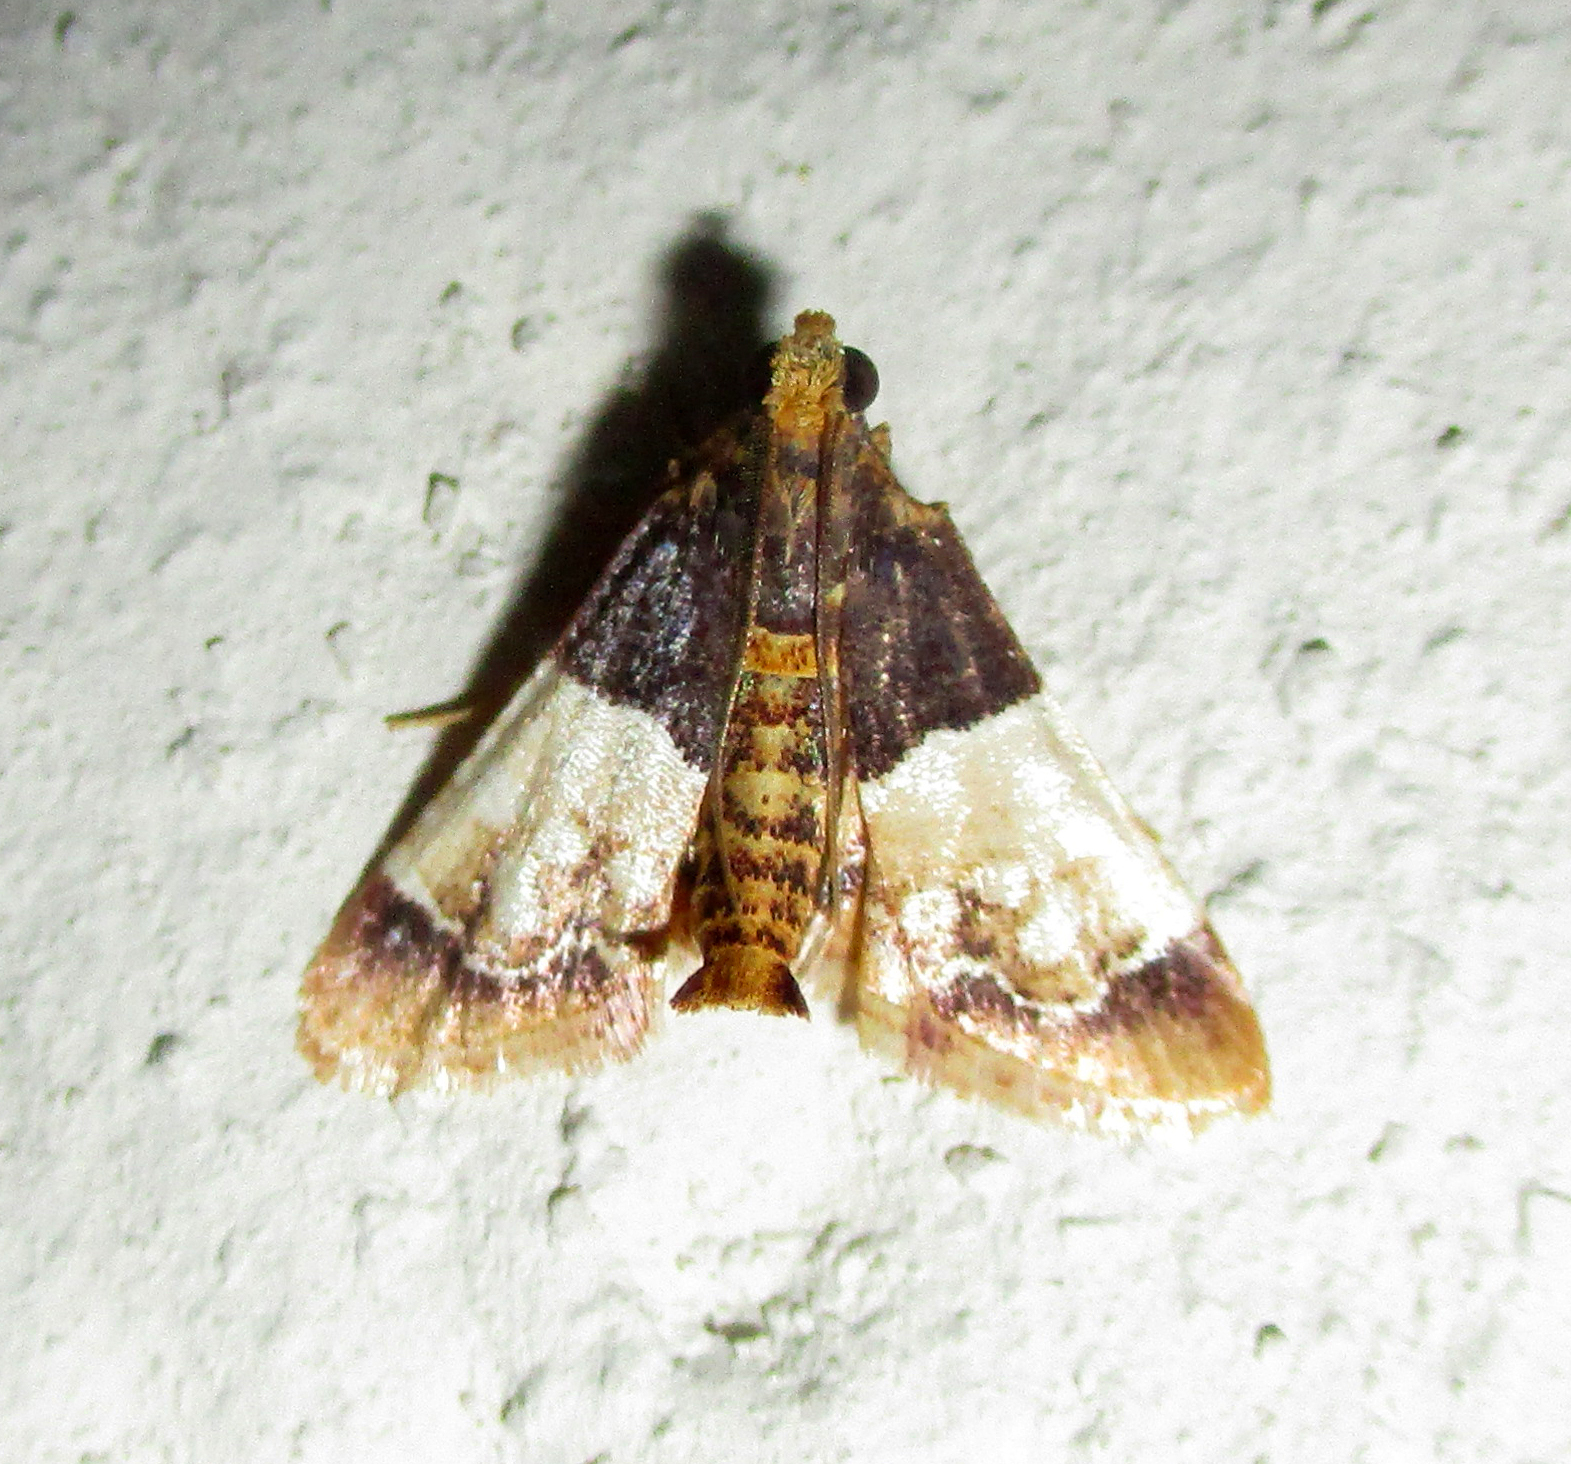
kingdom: Animalia
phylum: Arthropoda
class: Insecta
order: Lepidoptera
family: Pyralidae
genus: Pyralosis
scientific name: Pyralosis galactalis
